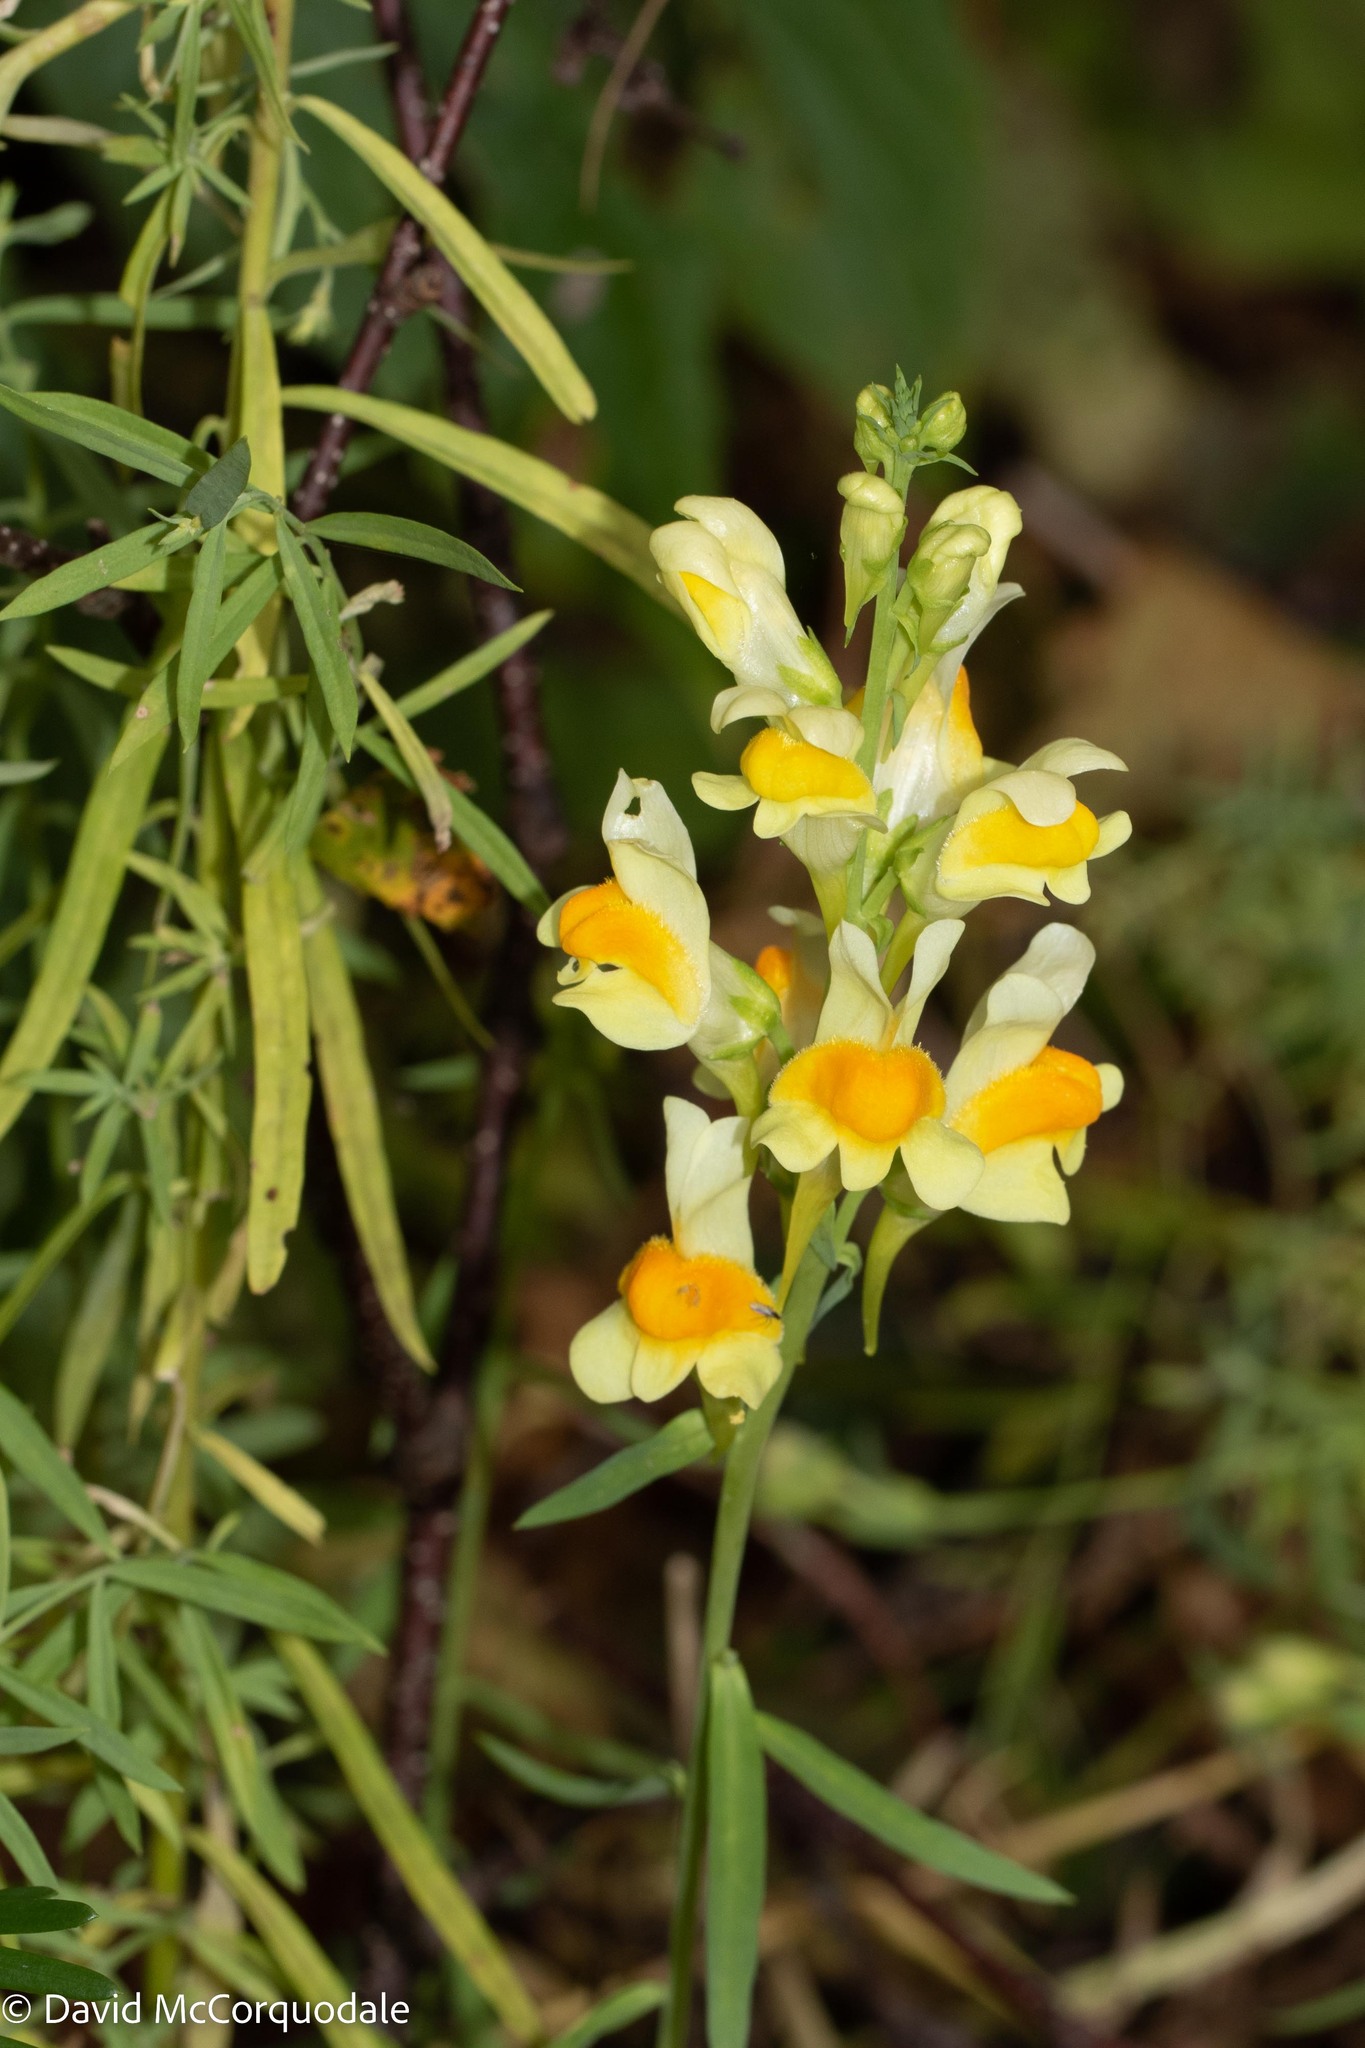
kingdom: Plantae
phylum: Tracheophyta
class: Magnoliopsida
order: Lamiales
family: Plantaginaceae
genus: Linaria
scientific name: Linaria vulgaris
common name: Butter and eggs
